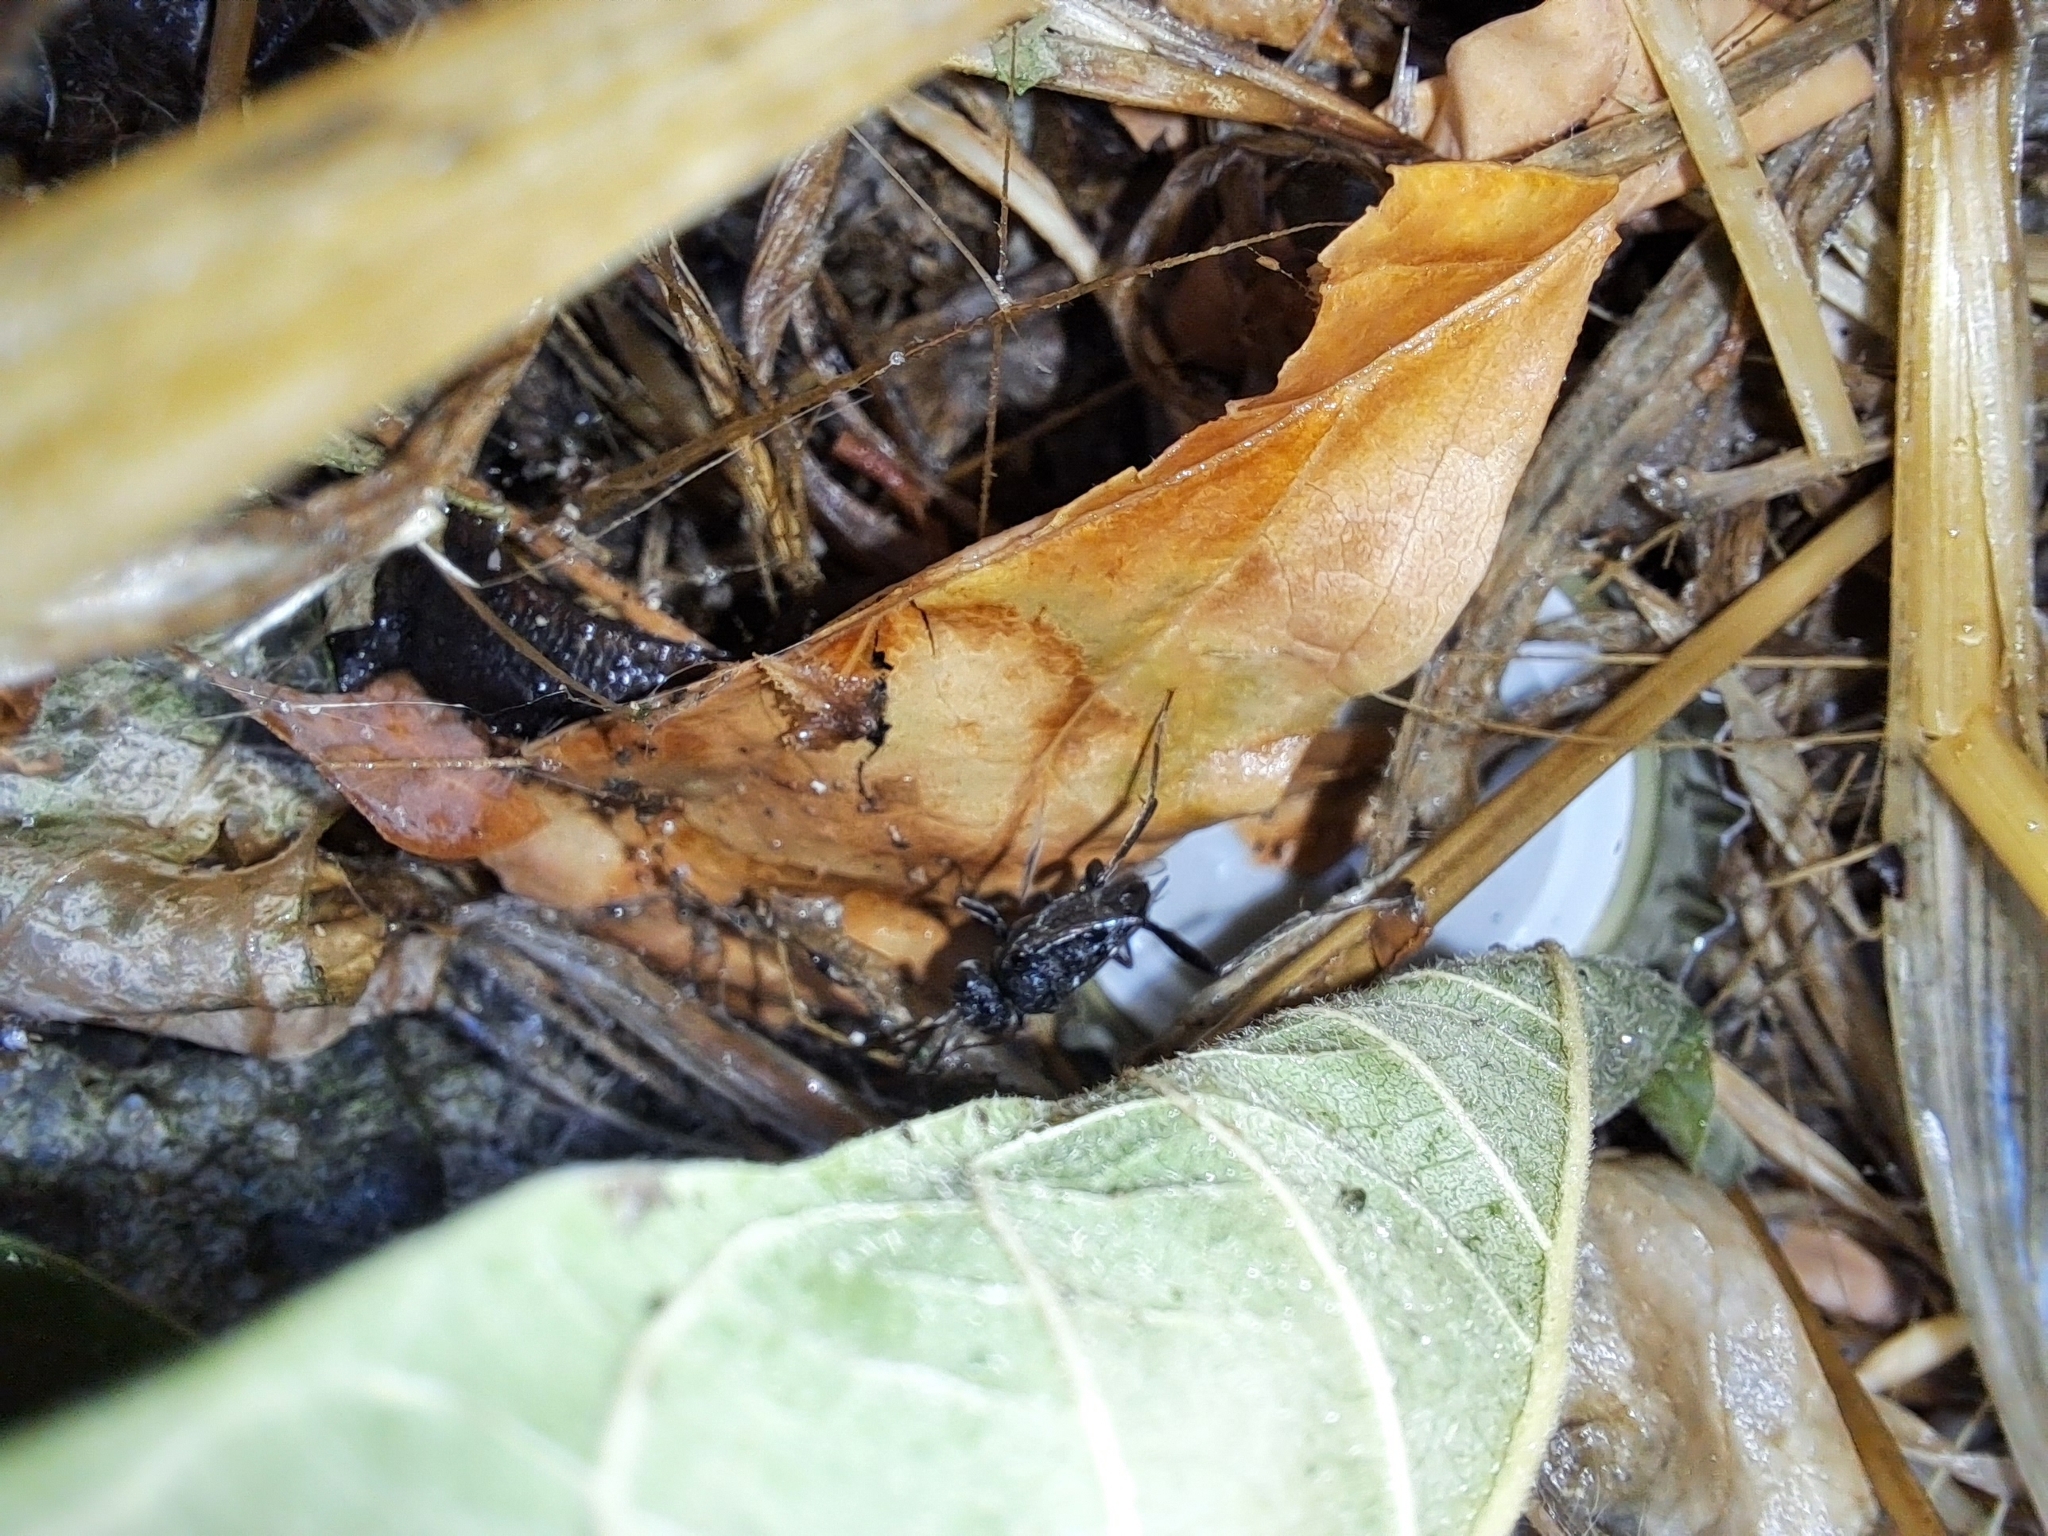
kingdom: Animalia
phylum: Arthropoda
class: Insecta
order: Hymenoptera
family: Evaniidae
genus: Evania
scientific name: Evania appendigaster
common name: Ensign wasp
